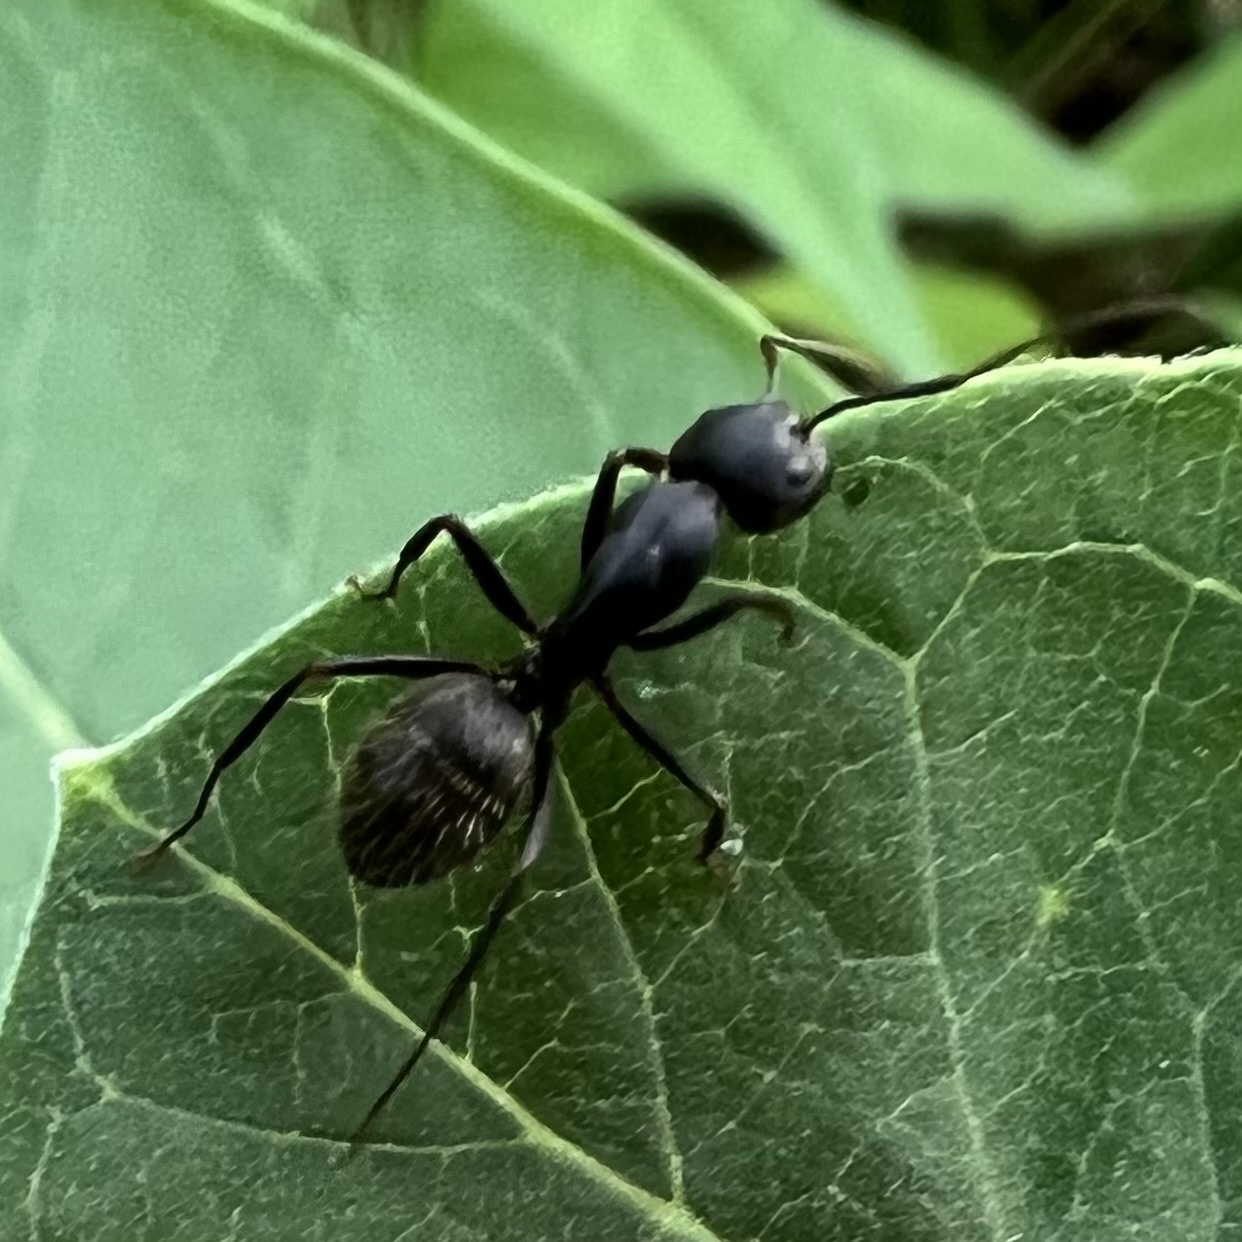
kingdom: Animalia
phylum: Arthropoda
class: Insecta
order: Hymenoptera
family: Formicidae
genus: Camponotus
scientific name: Camponotus pennsylvanicus
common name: Black carpenter ant
